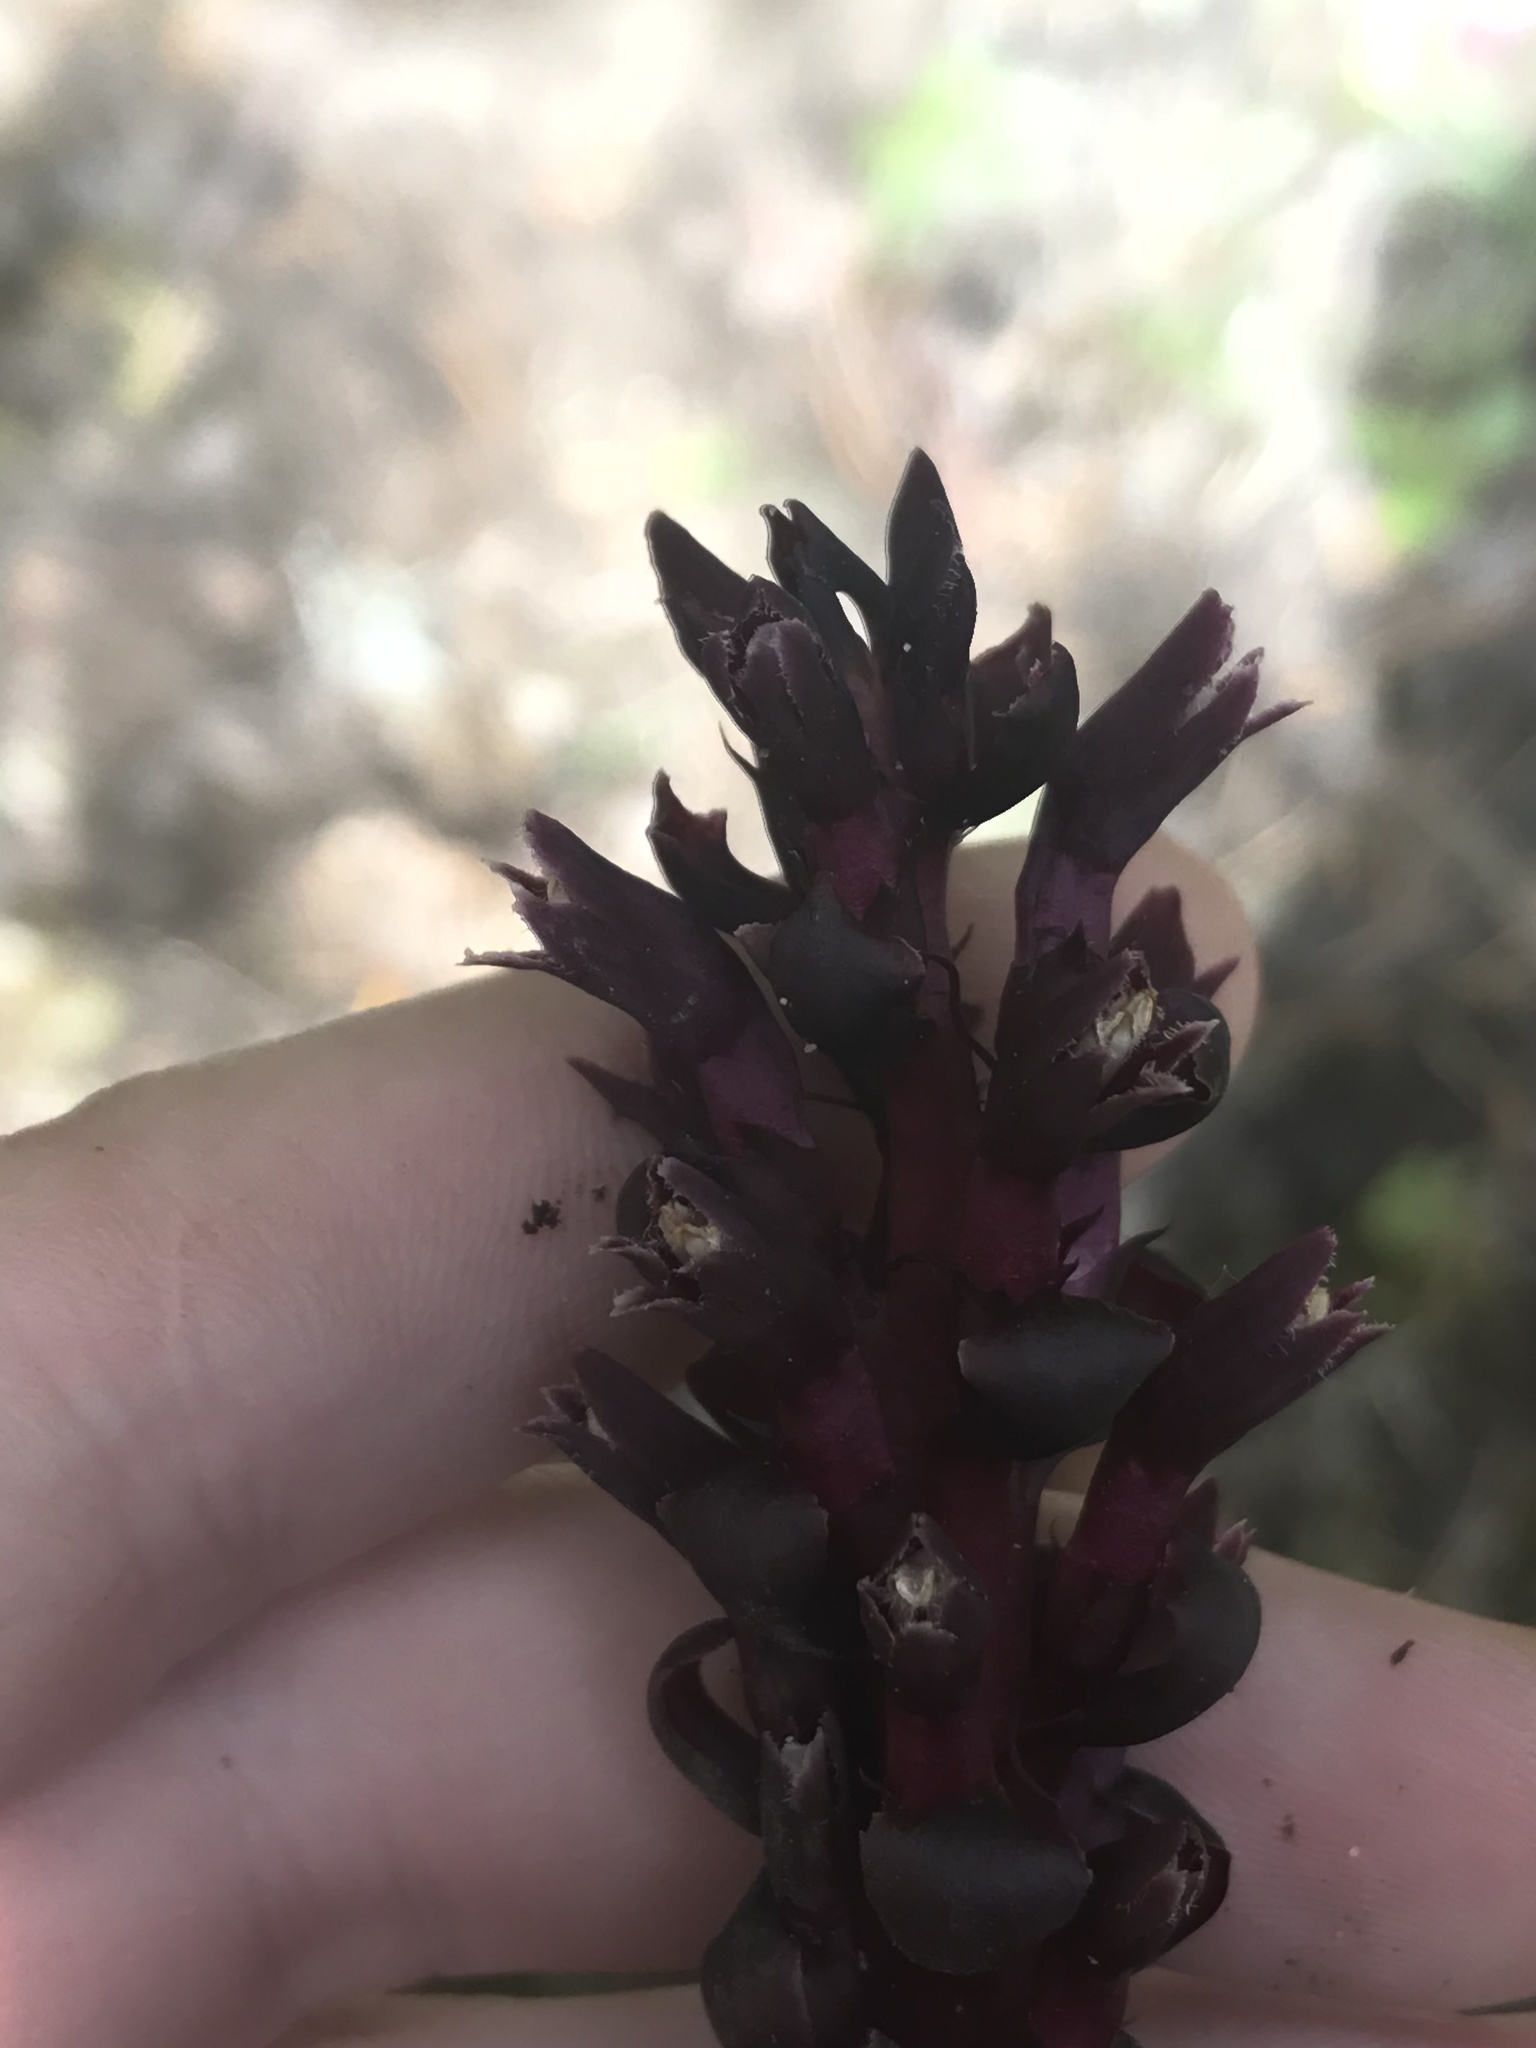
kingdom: Plantae
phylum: Tracheophyta
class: Magnoliopsida
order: Lamiales
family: Orobanchaceae
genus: Kopsiopsis
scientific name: Kopsiopsis hookeri
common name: Hooker's groundcone
